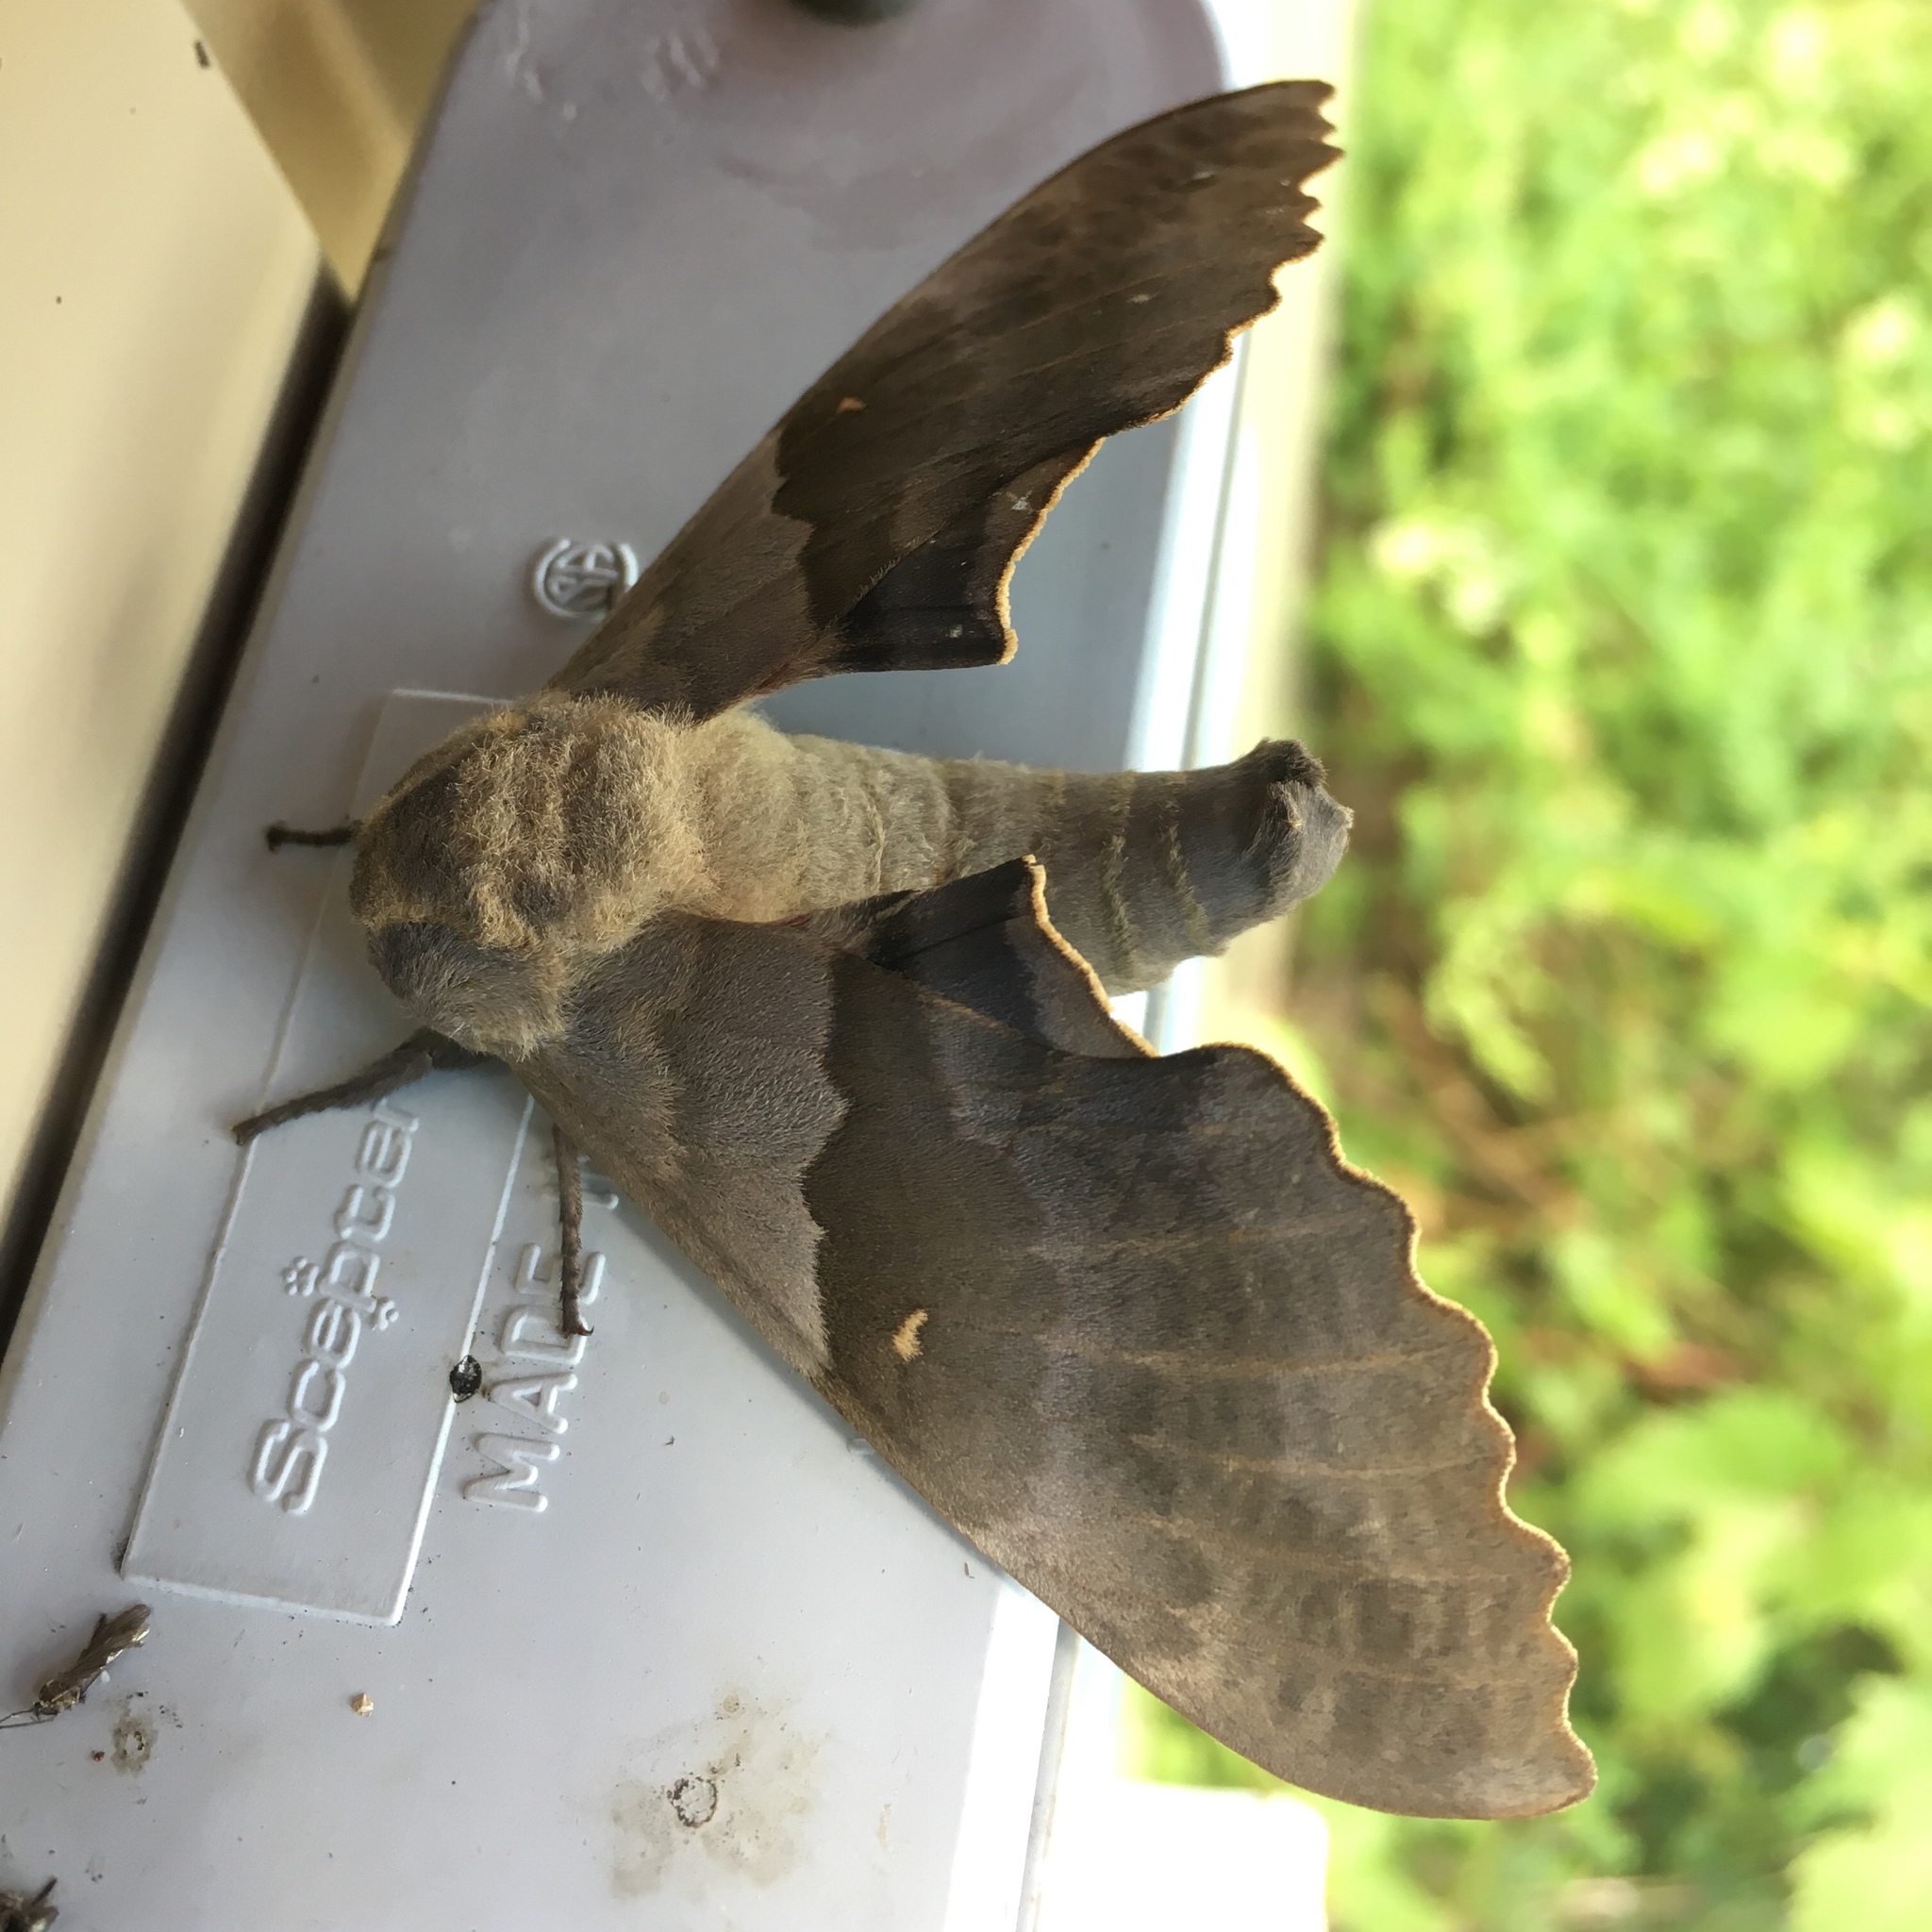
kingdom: Animalia
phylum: Arthropoda
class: Insecta
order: Lepidoptera
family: Sphingidae
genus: Pachysphinx
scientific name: Pachysphinx modesta
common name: Big poplar sphinx
